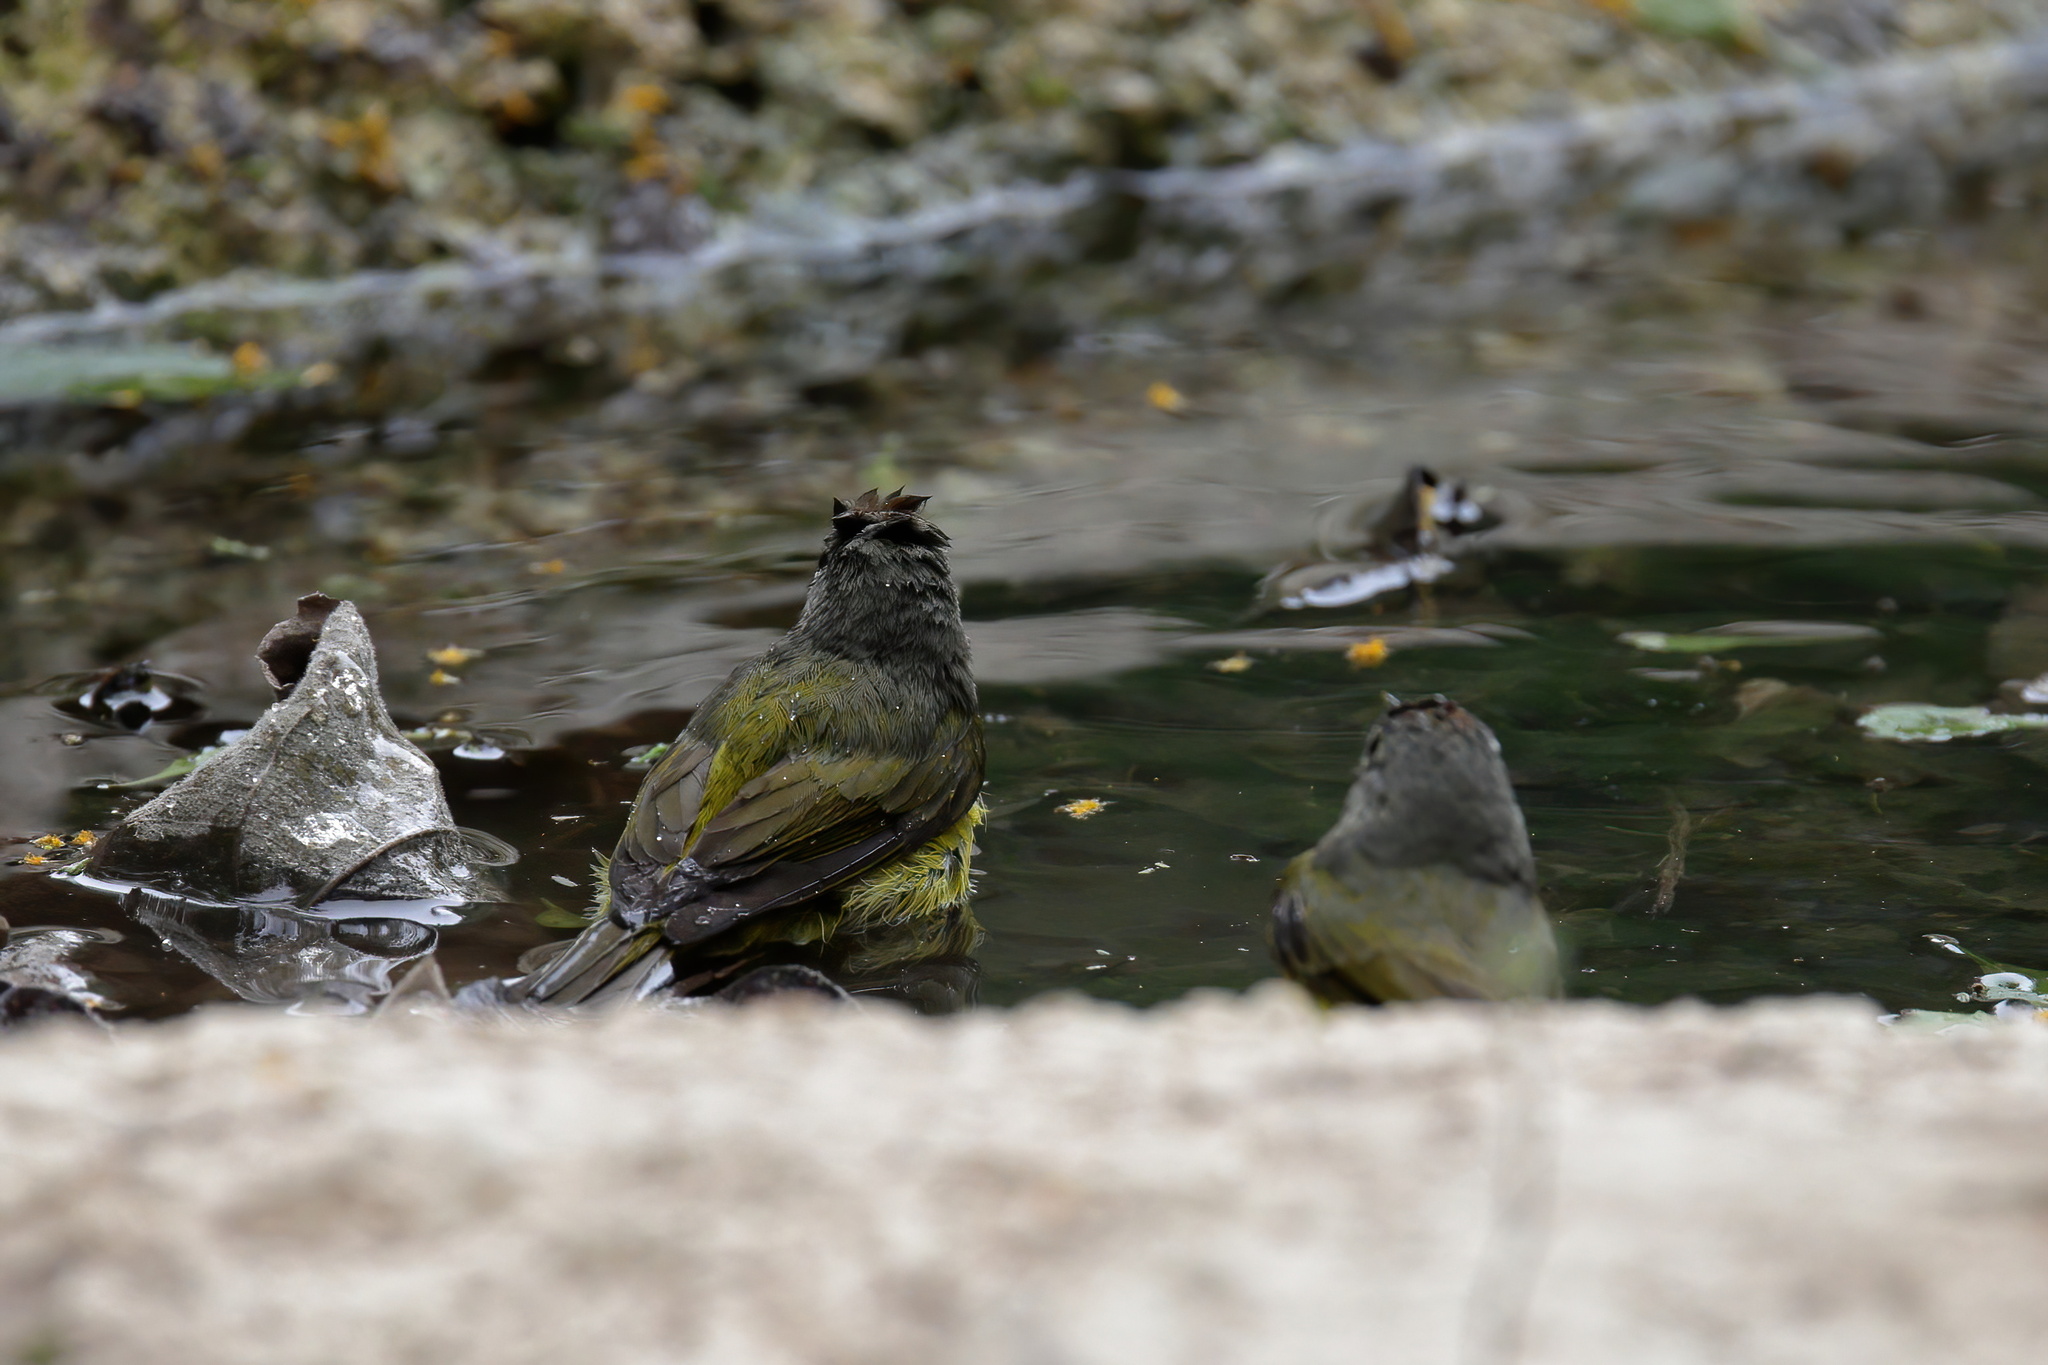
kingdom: Animalia
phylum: Chordata
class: Aves
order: Passeriformes
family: Parulidae
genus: Leiothlypis
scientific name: Leiothlypis ruficapilla
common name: Nashville warbler
